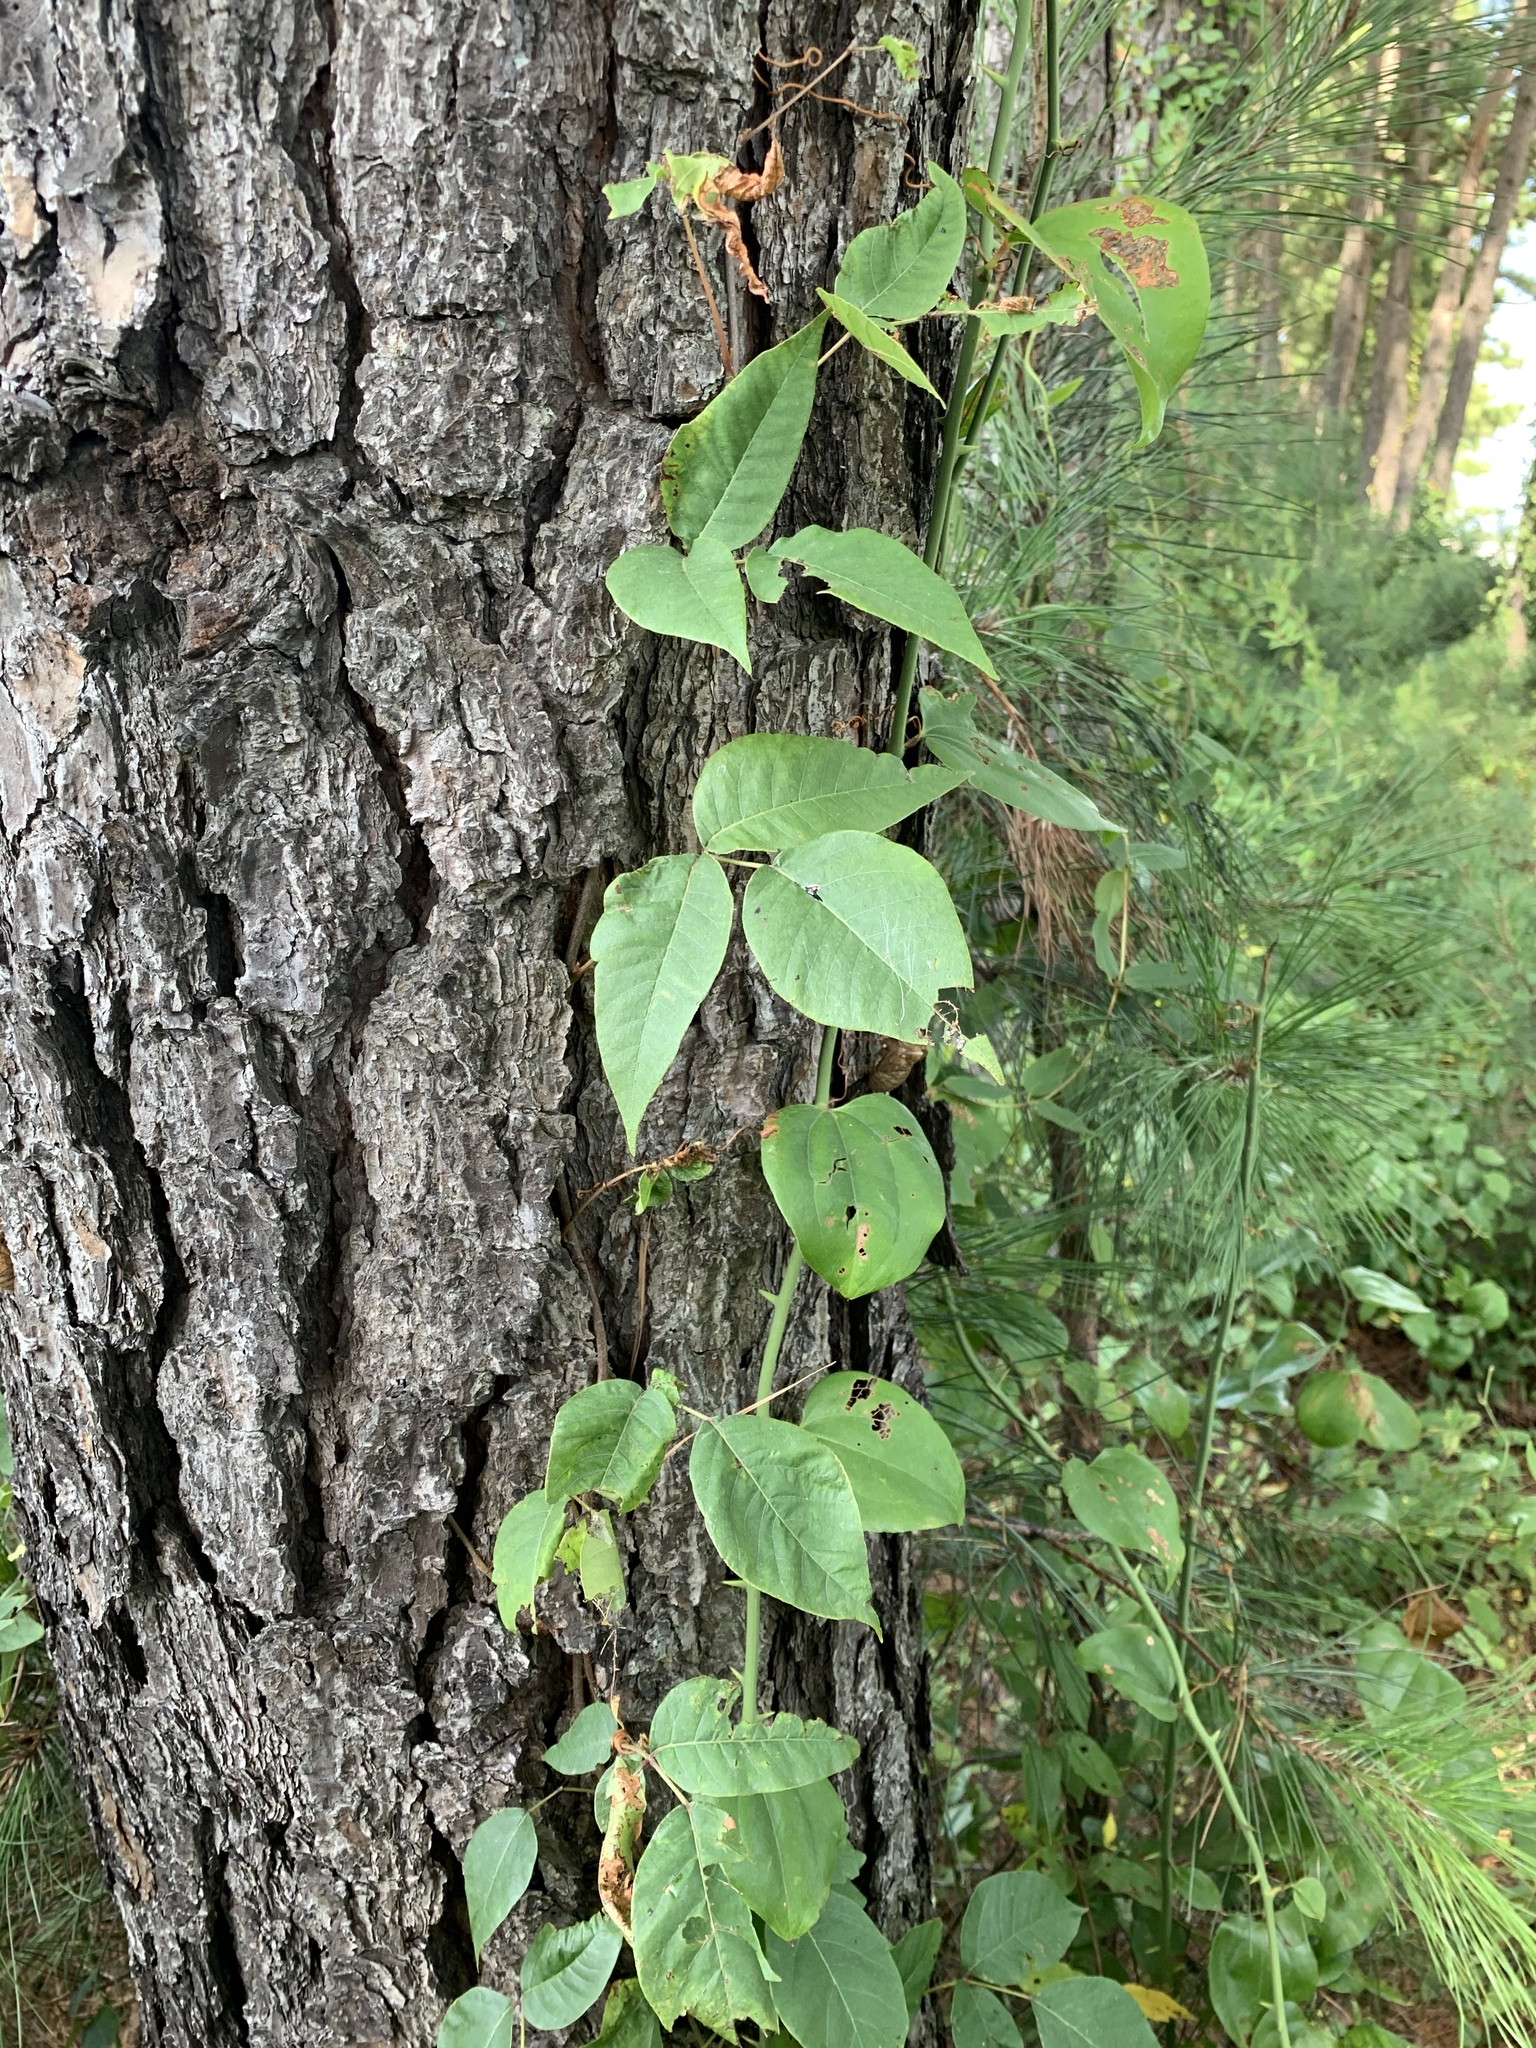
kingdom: Plantae
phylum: Tracheophyta
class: Magnoliopsida
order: Sapindales
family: Anacardiaceae
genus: Toxicodendron
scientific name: Toxicodendron radicans
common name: Poison ivy
